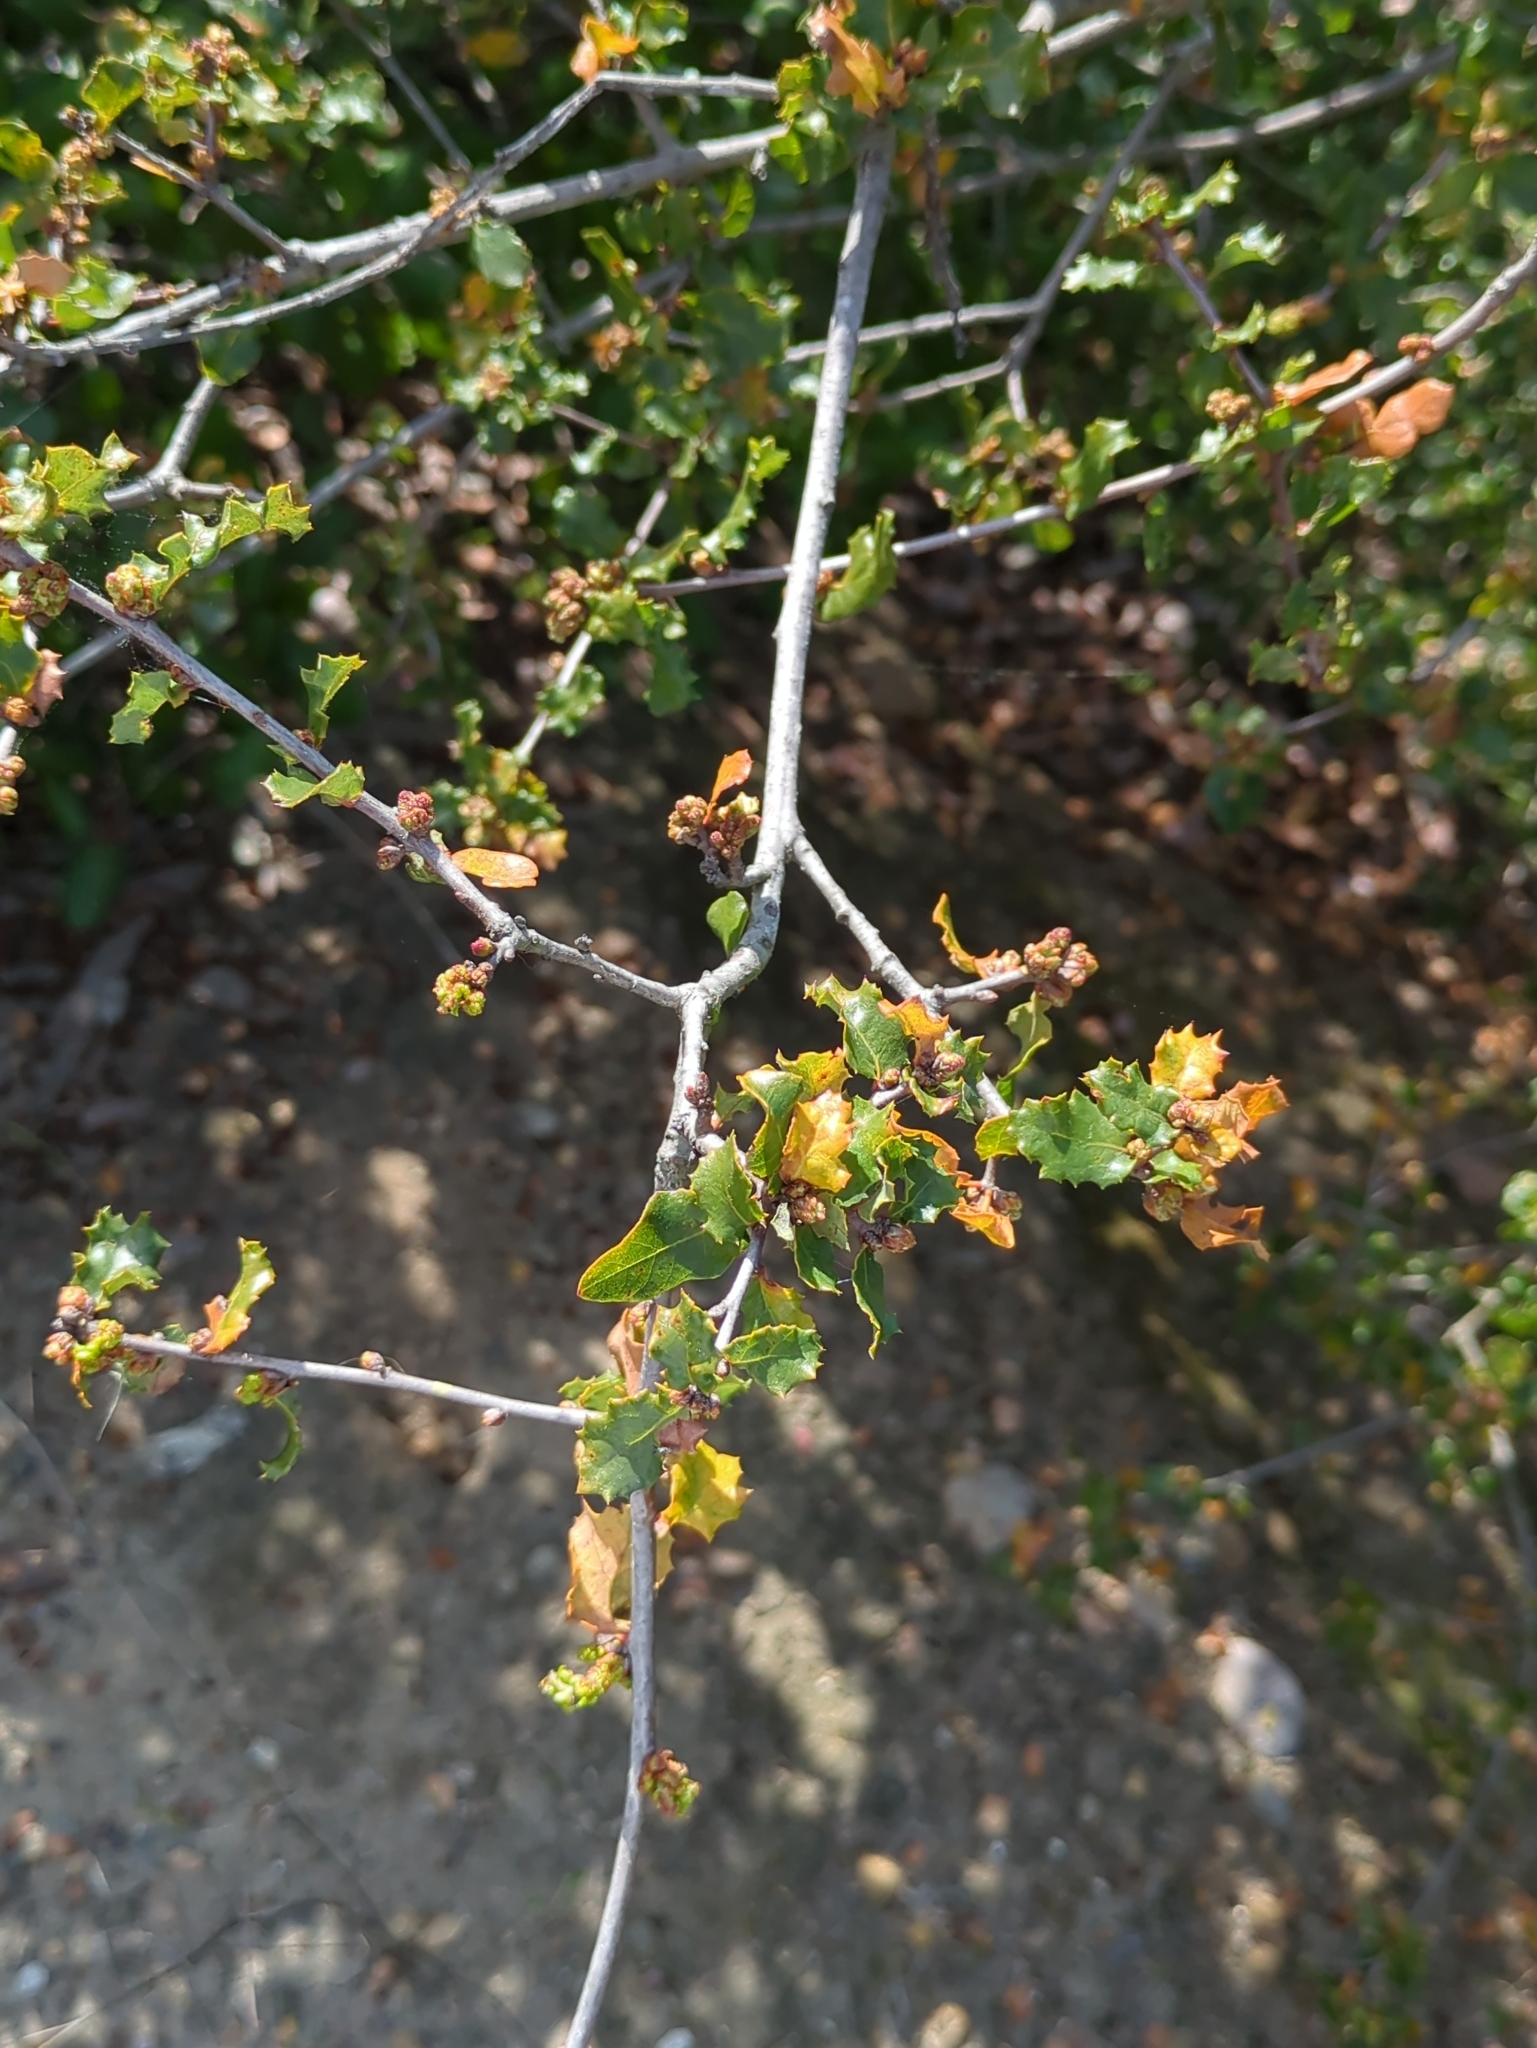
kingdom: Plantae
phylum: Tracheophyta
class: Magnoliopsida
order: Fagales
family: Fagaceae
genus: Quercus
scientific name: Quercus dumosa
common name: Coastal sage scrub oak
